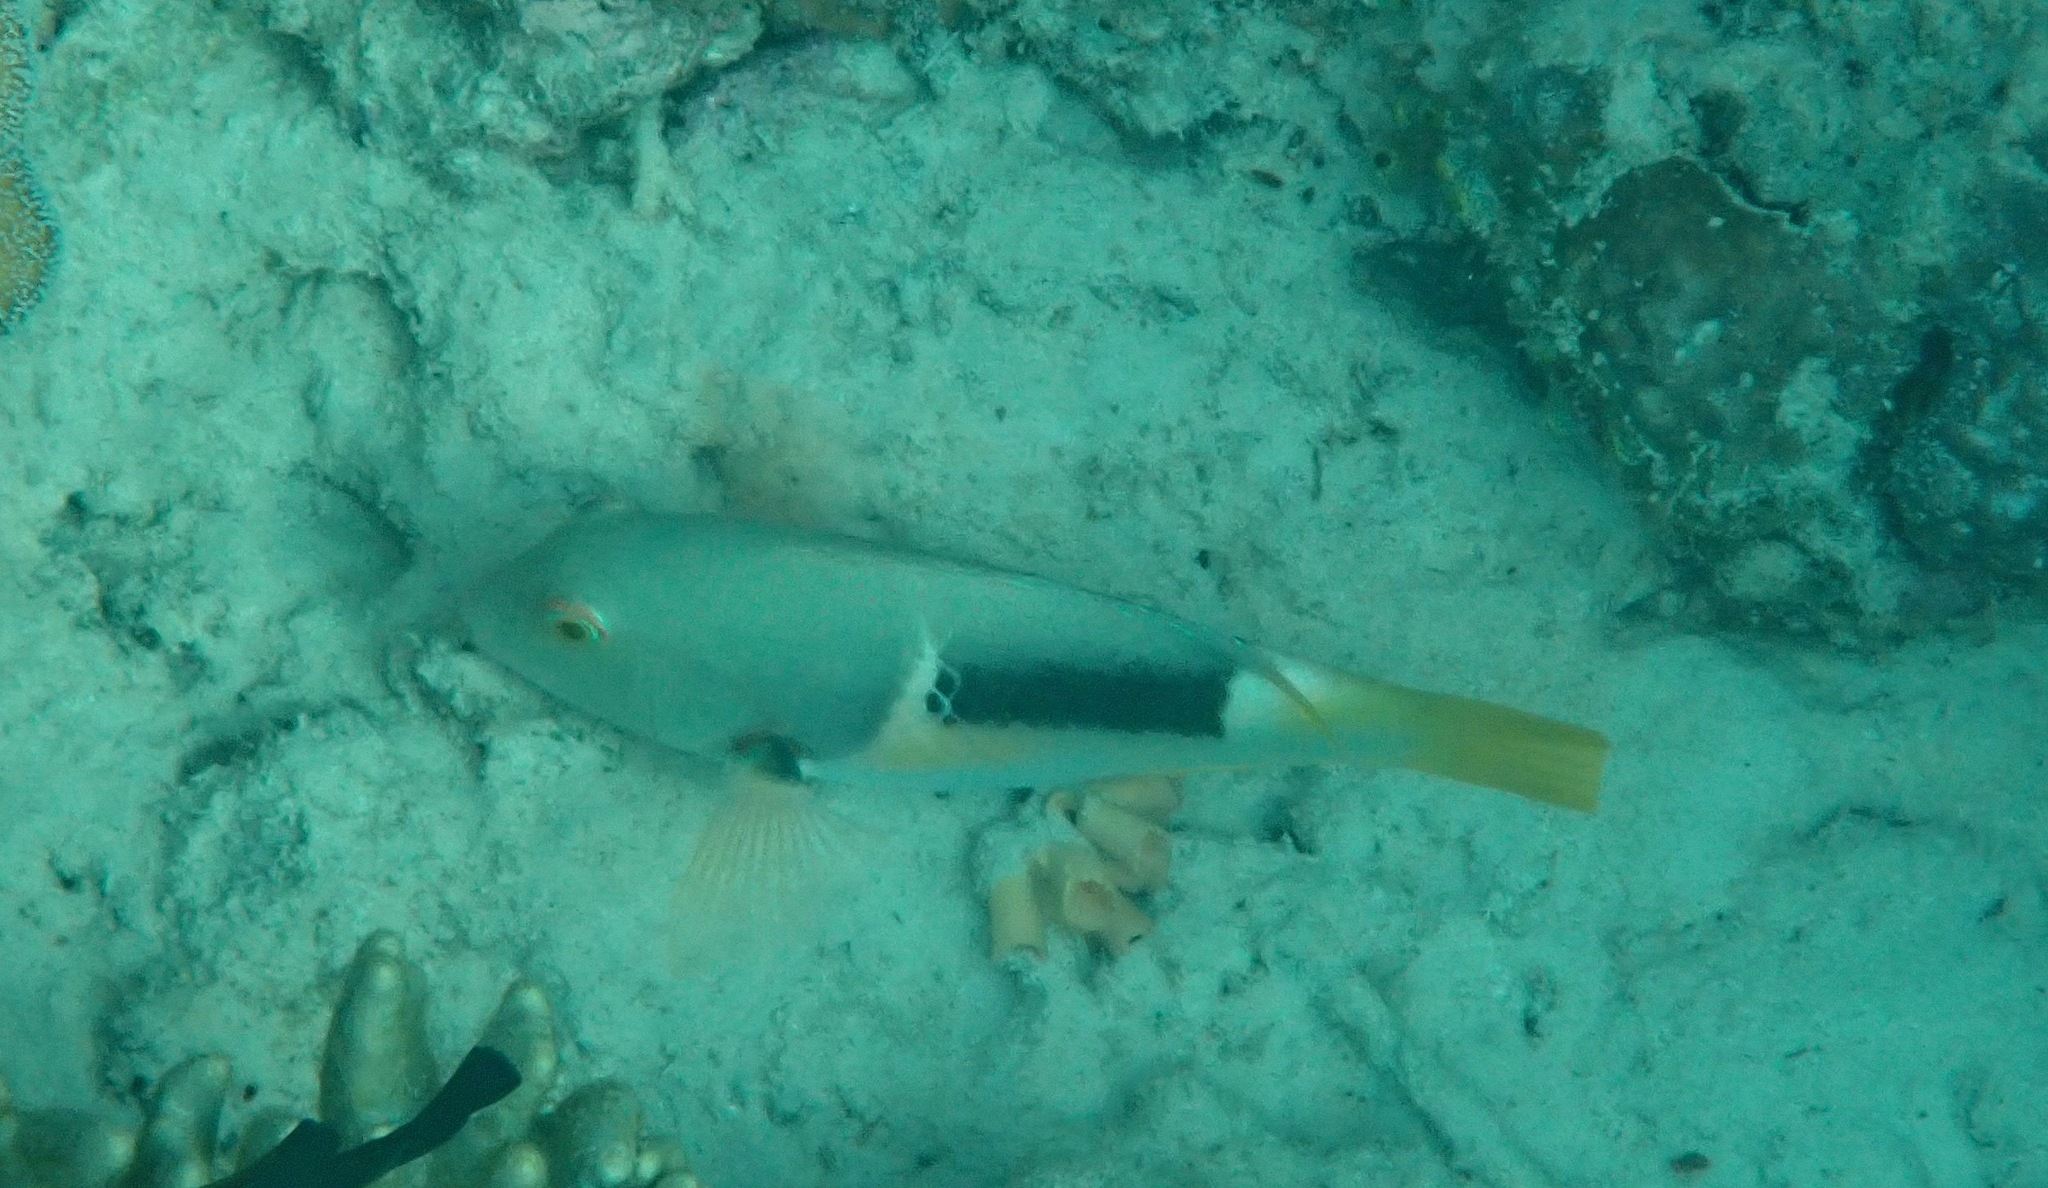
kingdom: Animalia
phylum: Chordata
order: Perciformes
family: Labridae
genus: Choerodon
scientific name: Choerodon anchorago
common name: Anchor tuskfish
